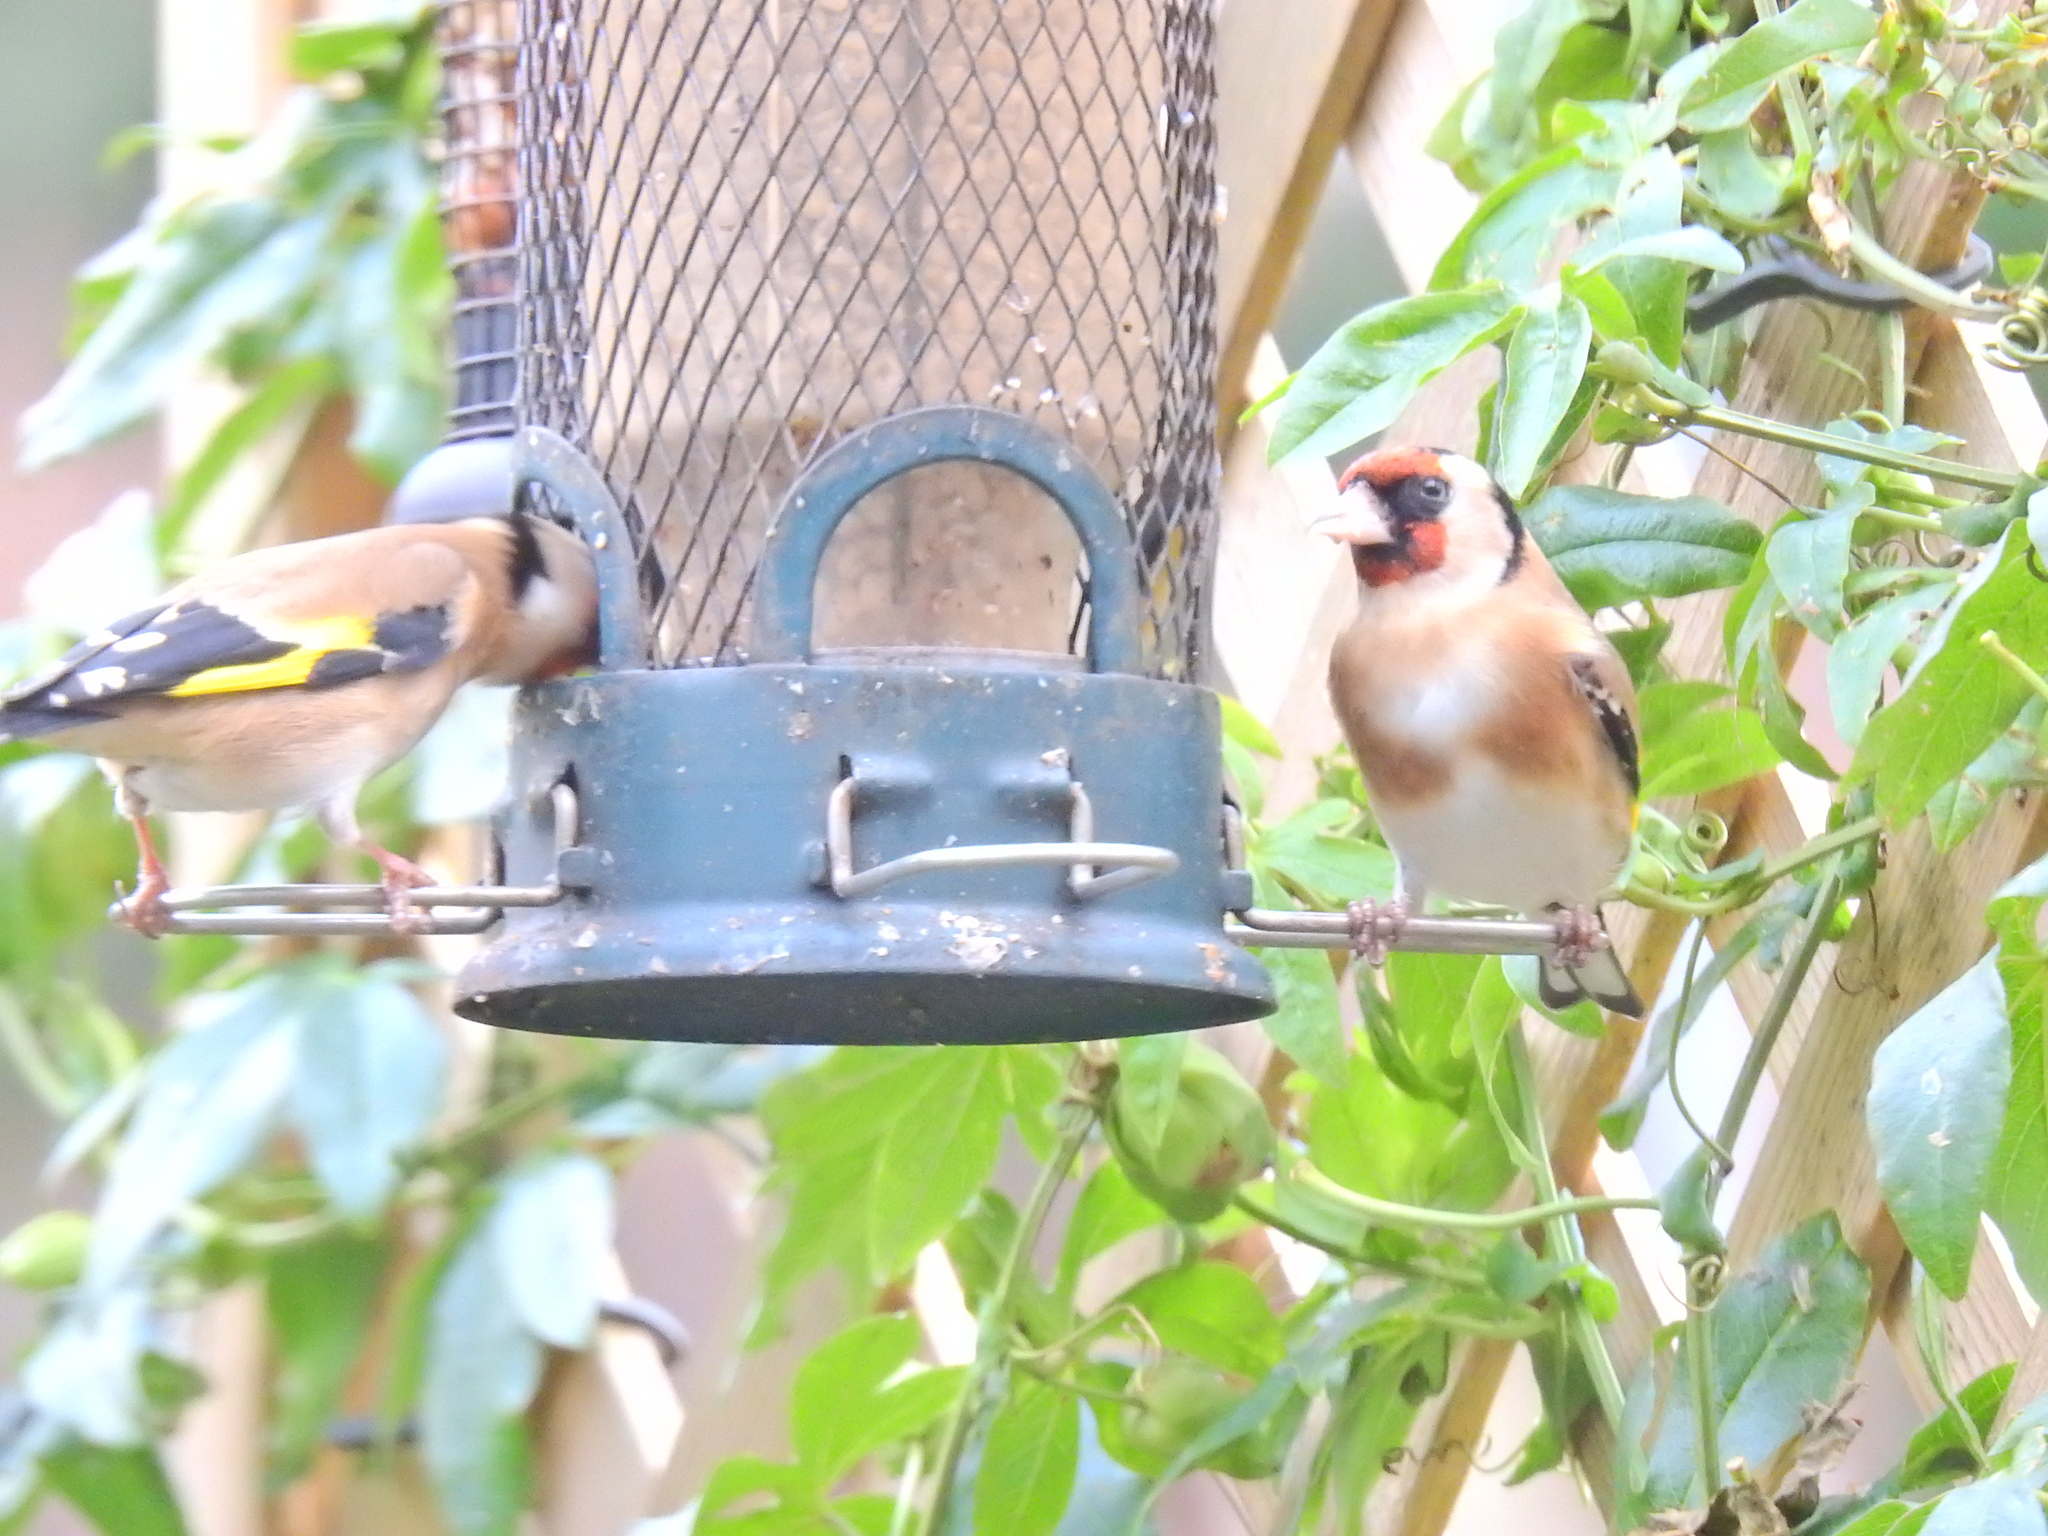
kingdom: Animalia
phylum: Chordata
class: Aves
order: Passeriformes
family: Fringillidae
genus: Carduelis
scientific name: Carduelis carduelis
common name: European goldfinch
